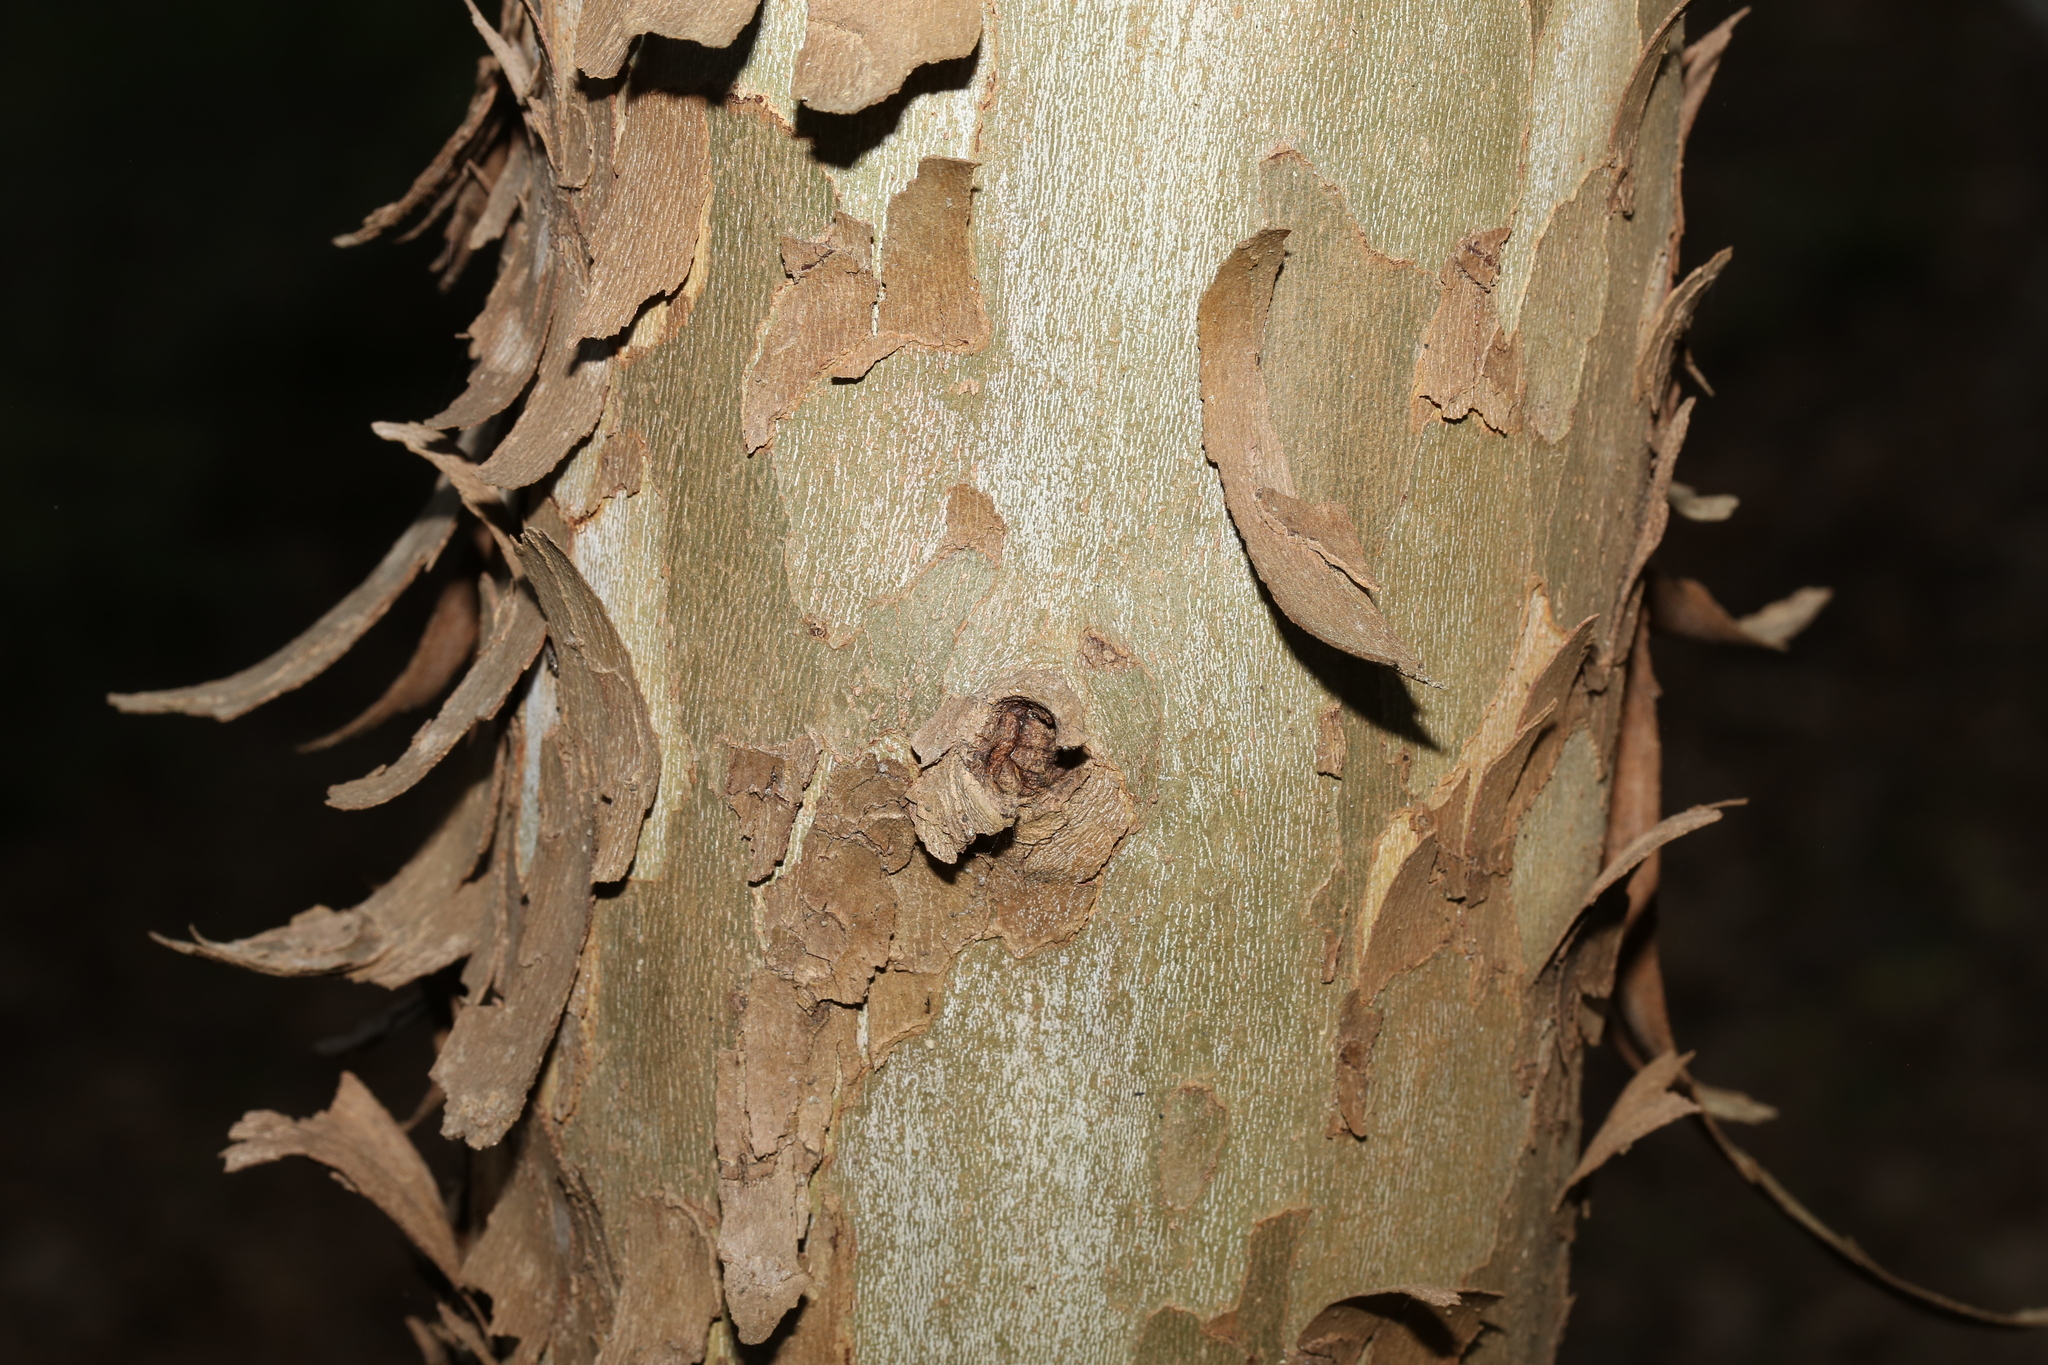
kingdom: Plantae
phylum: Tracheophyta
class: Magnoliopsida
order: Proteales
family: Platanaceae
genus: Platanus
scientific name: Platanus occidentalis
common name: American sycamore
